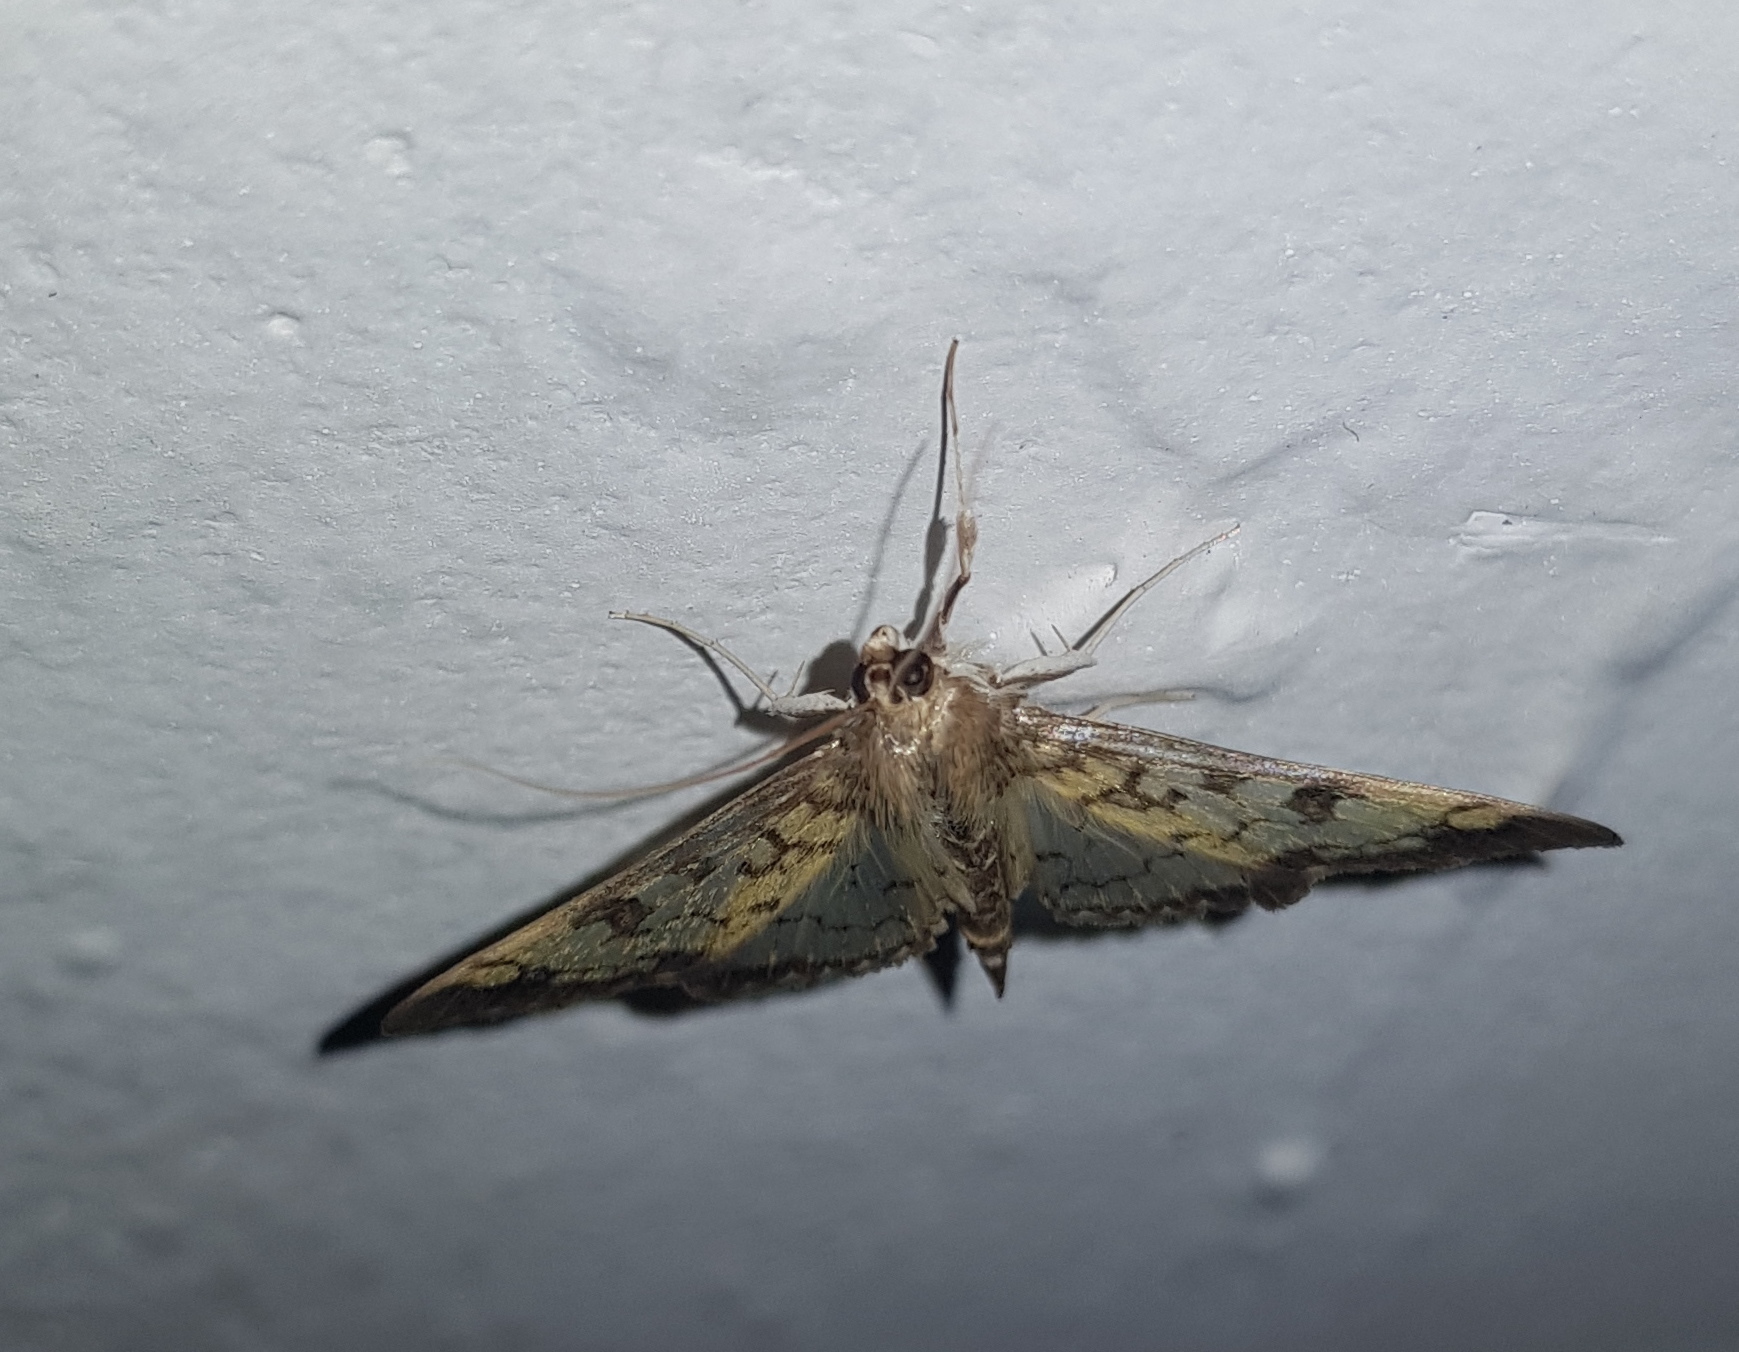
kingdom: Animalia
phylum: Arthropoda
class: Insecta
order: Lepidoptera
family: Crambidae
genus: Mimorista
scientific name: Mimorista subcostalis
